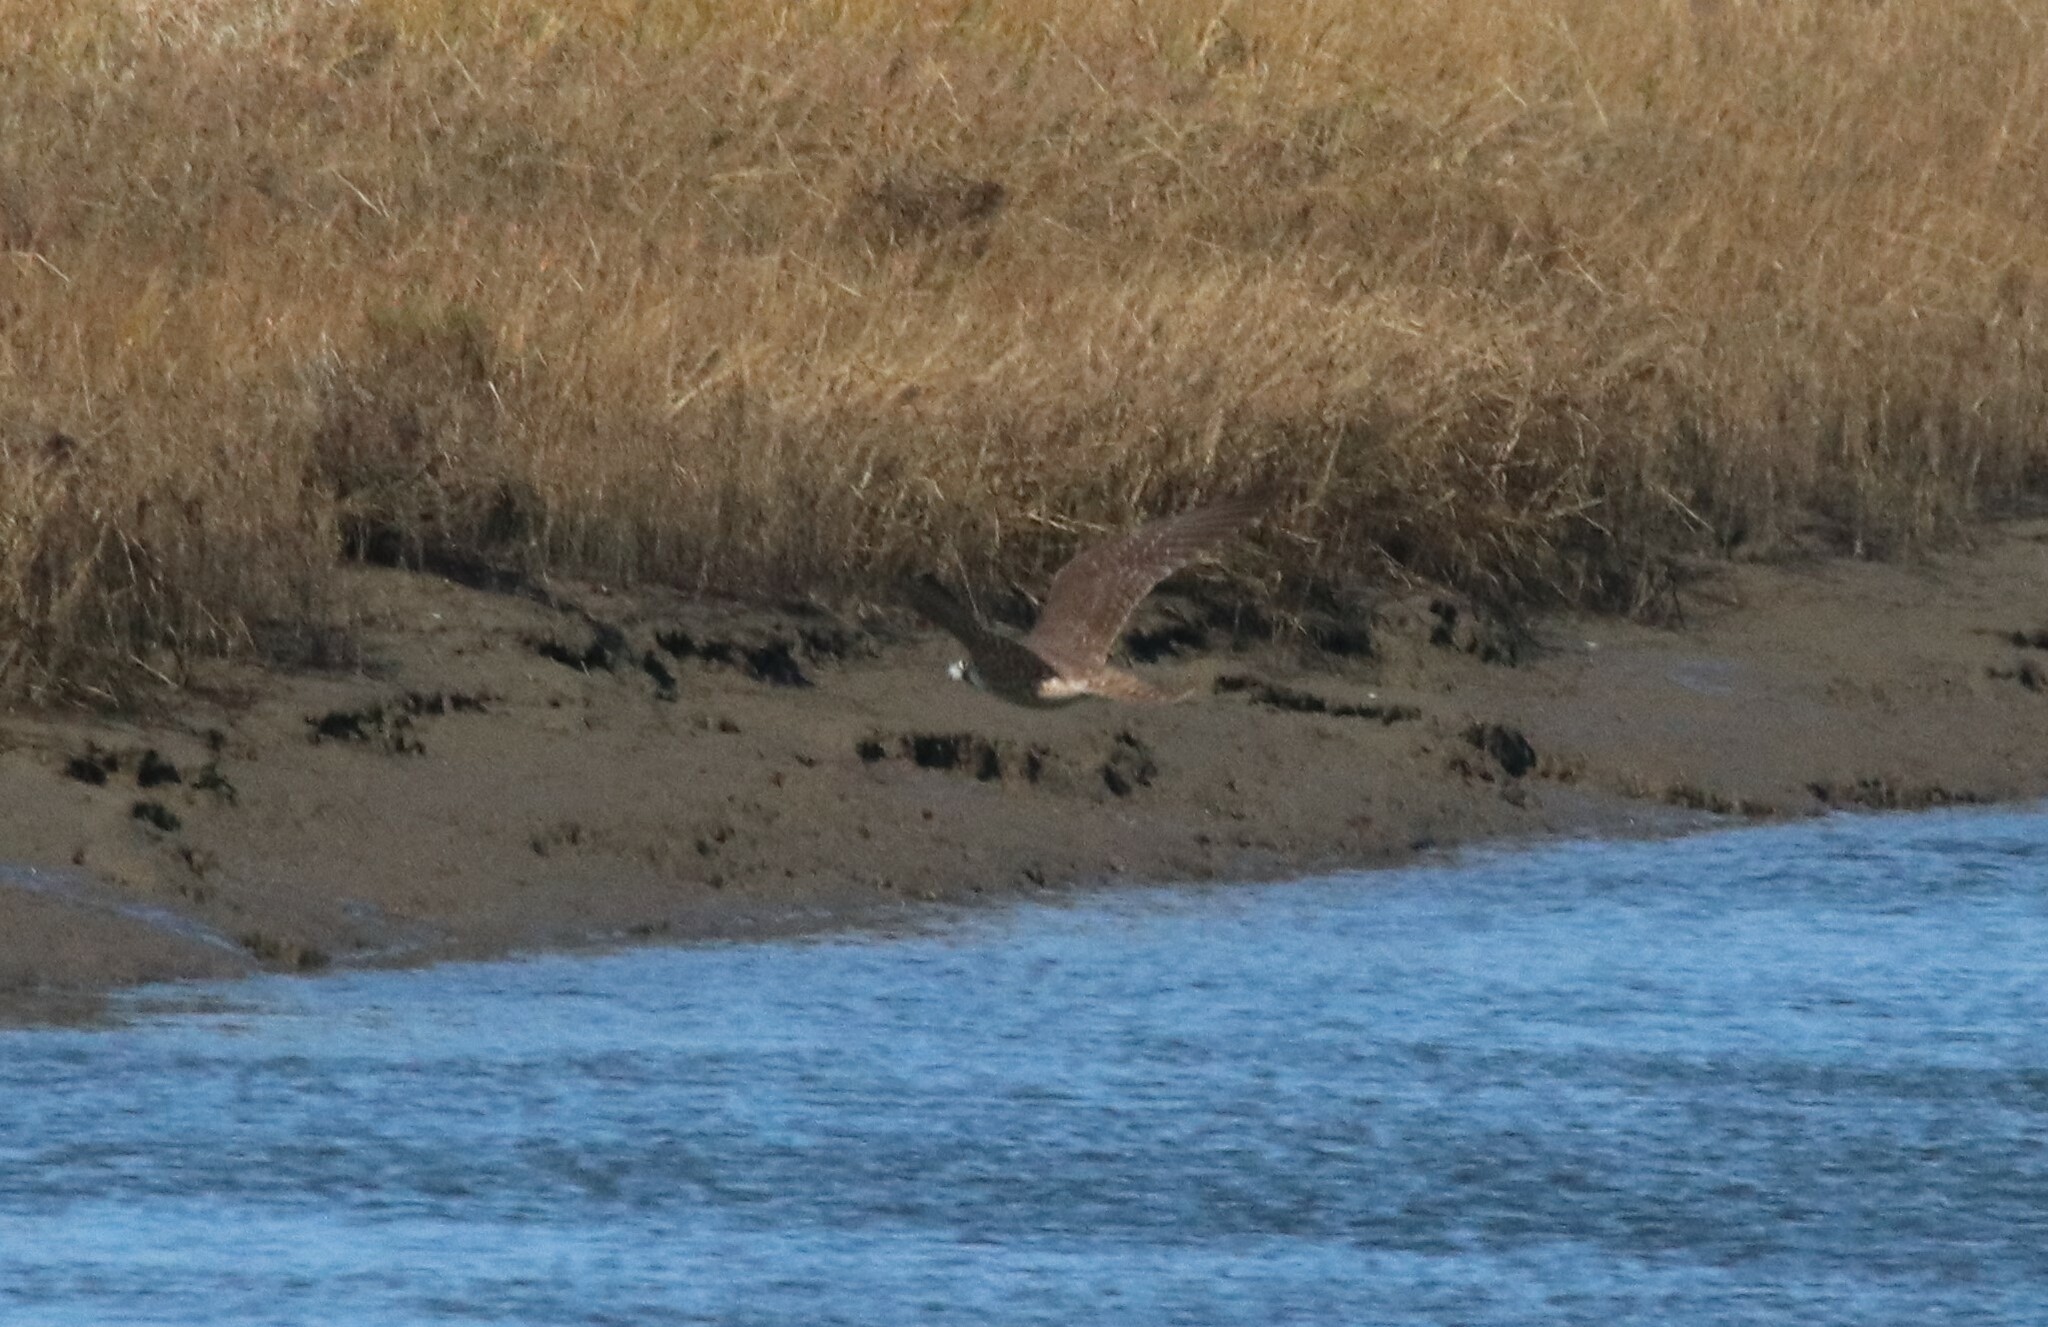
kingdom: Animalia
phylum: Chordata
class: Aves
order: Falconiformes
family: Falconidae
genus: Falco
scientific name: Falco peregrinus
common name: Peregrine falcon
